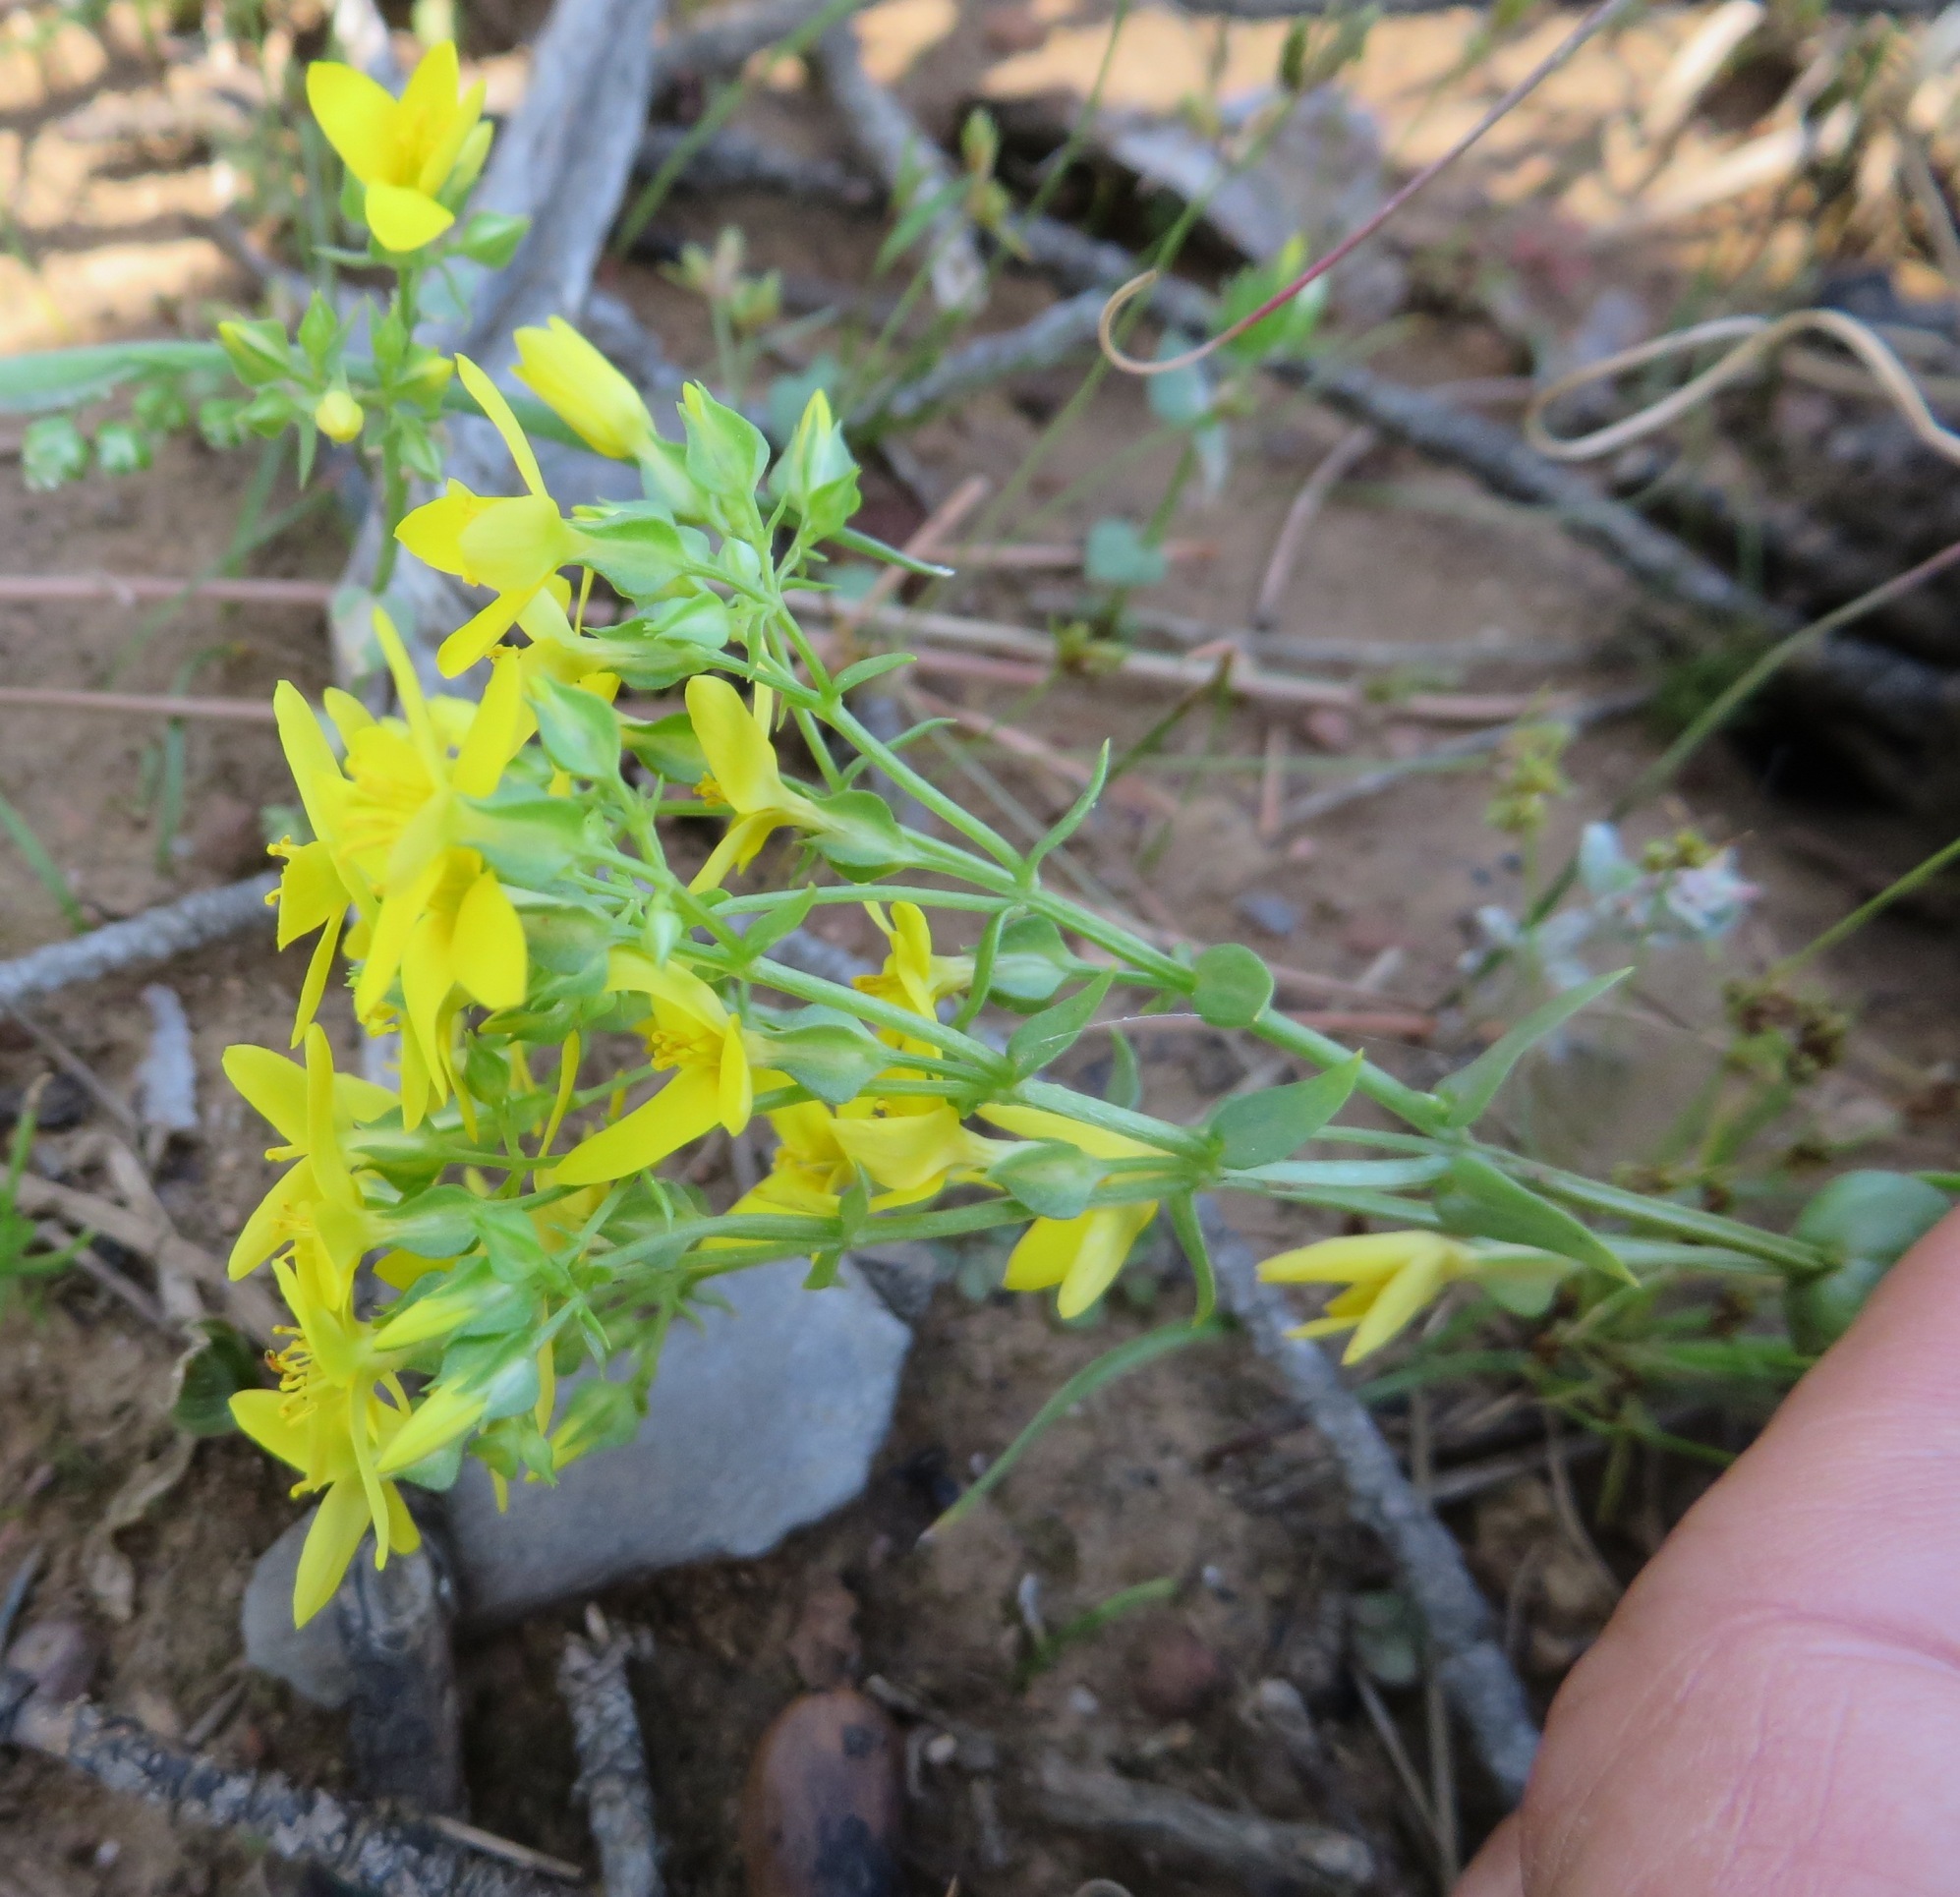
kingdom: Plantae
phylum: Tracheophyta
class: Magnoliopsida
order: Gentianales
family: Gentianaceae
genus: Sebaea
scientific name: Sebaea aurea
